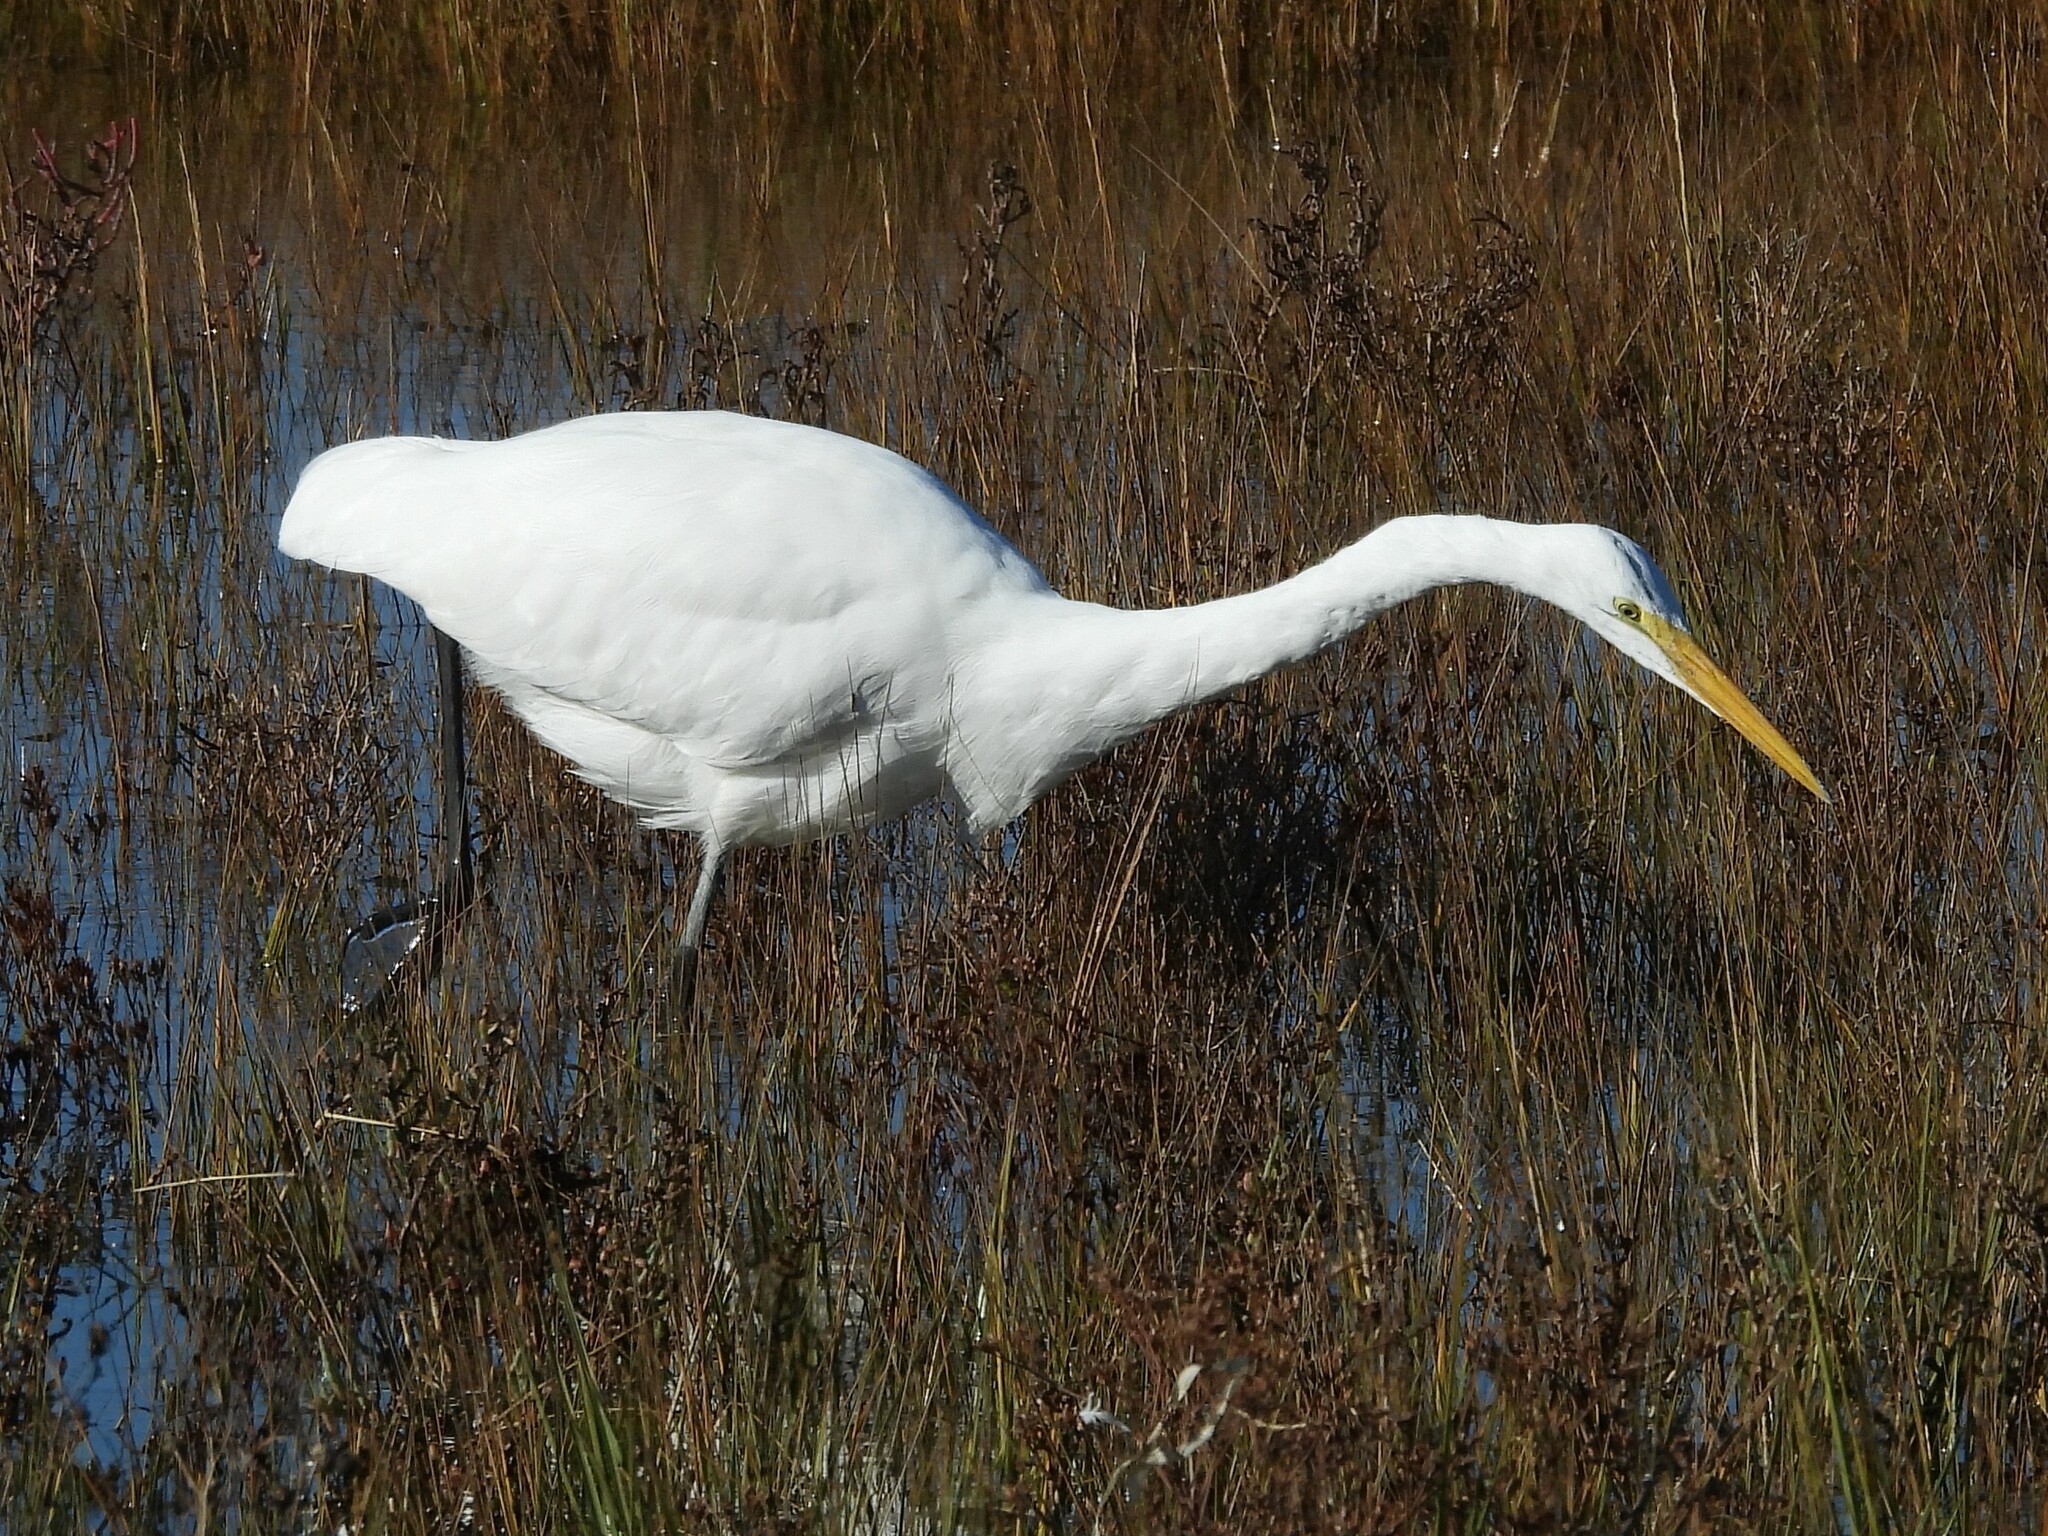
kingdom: Animalia
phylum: Chordata
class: Aves
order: Pelecaniformes
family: Ardeidae
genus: Ardea
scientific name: Ardea alba
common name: Great egret
